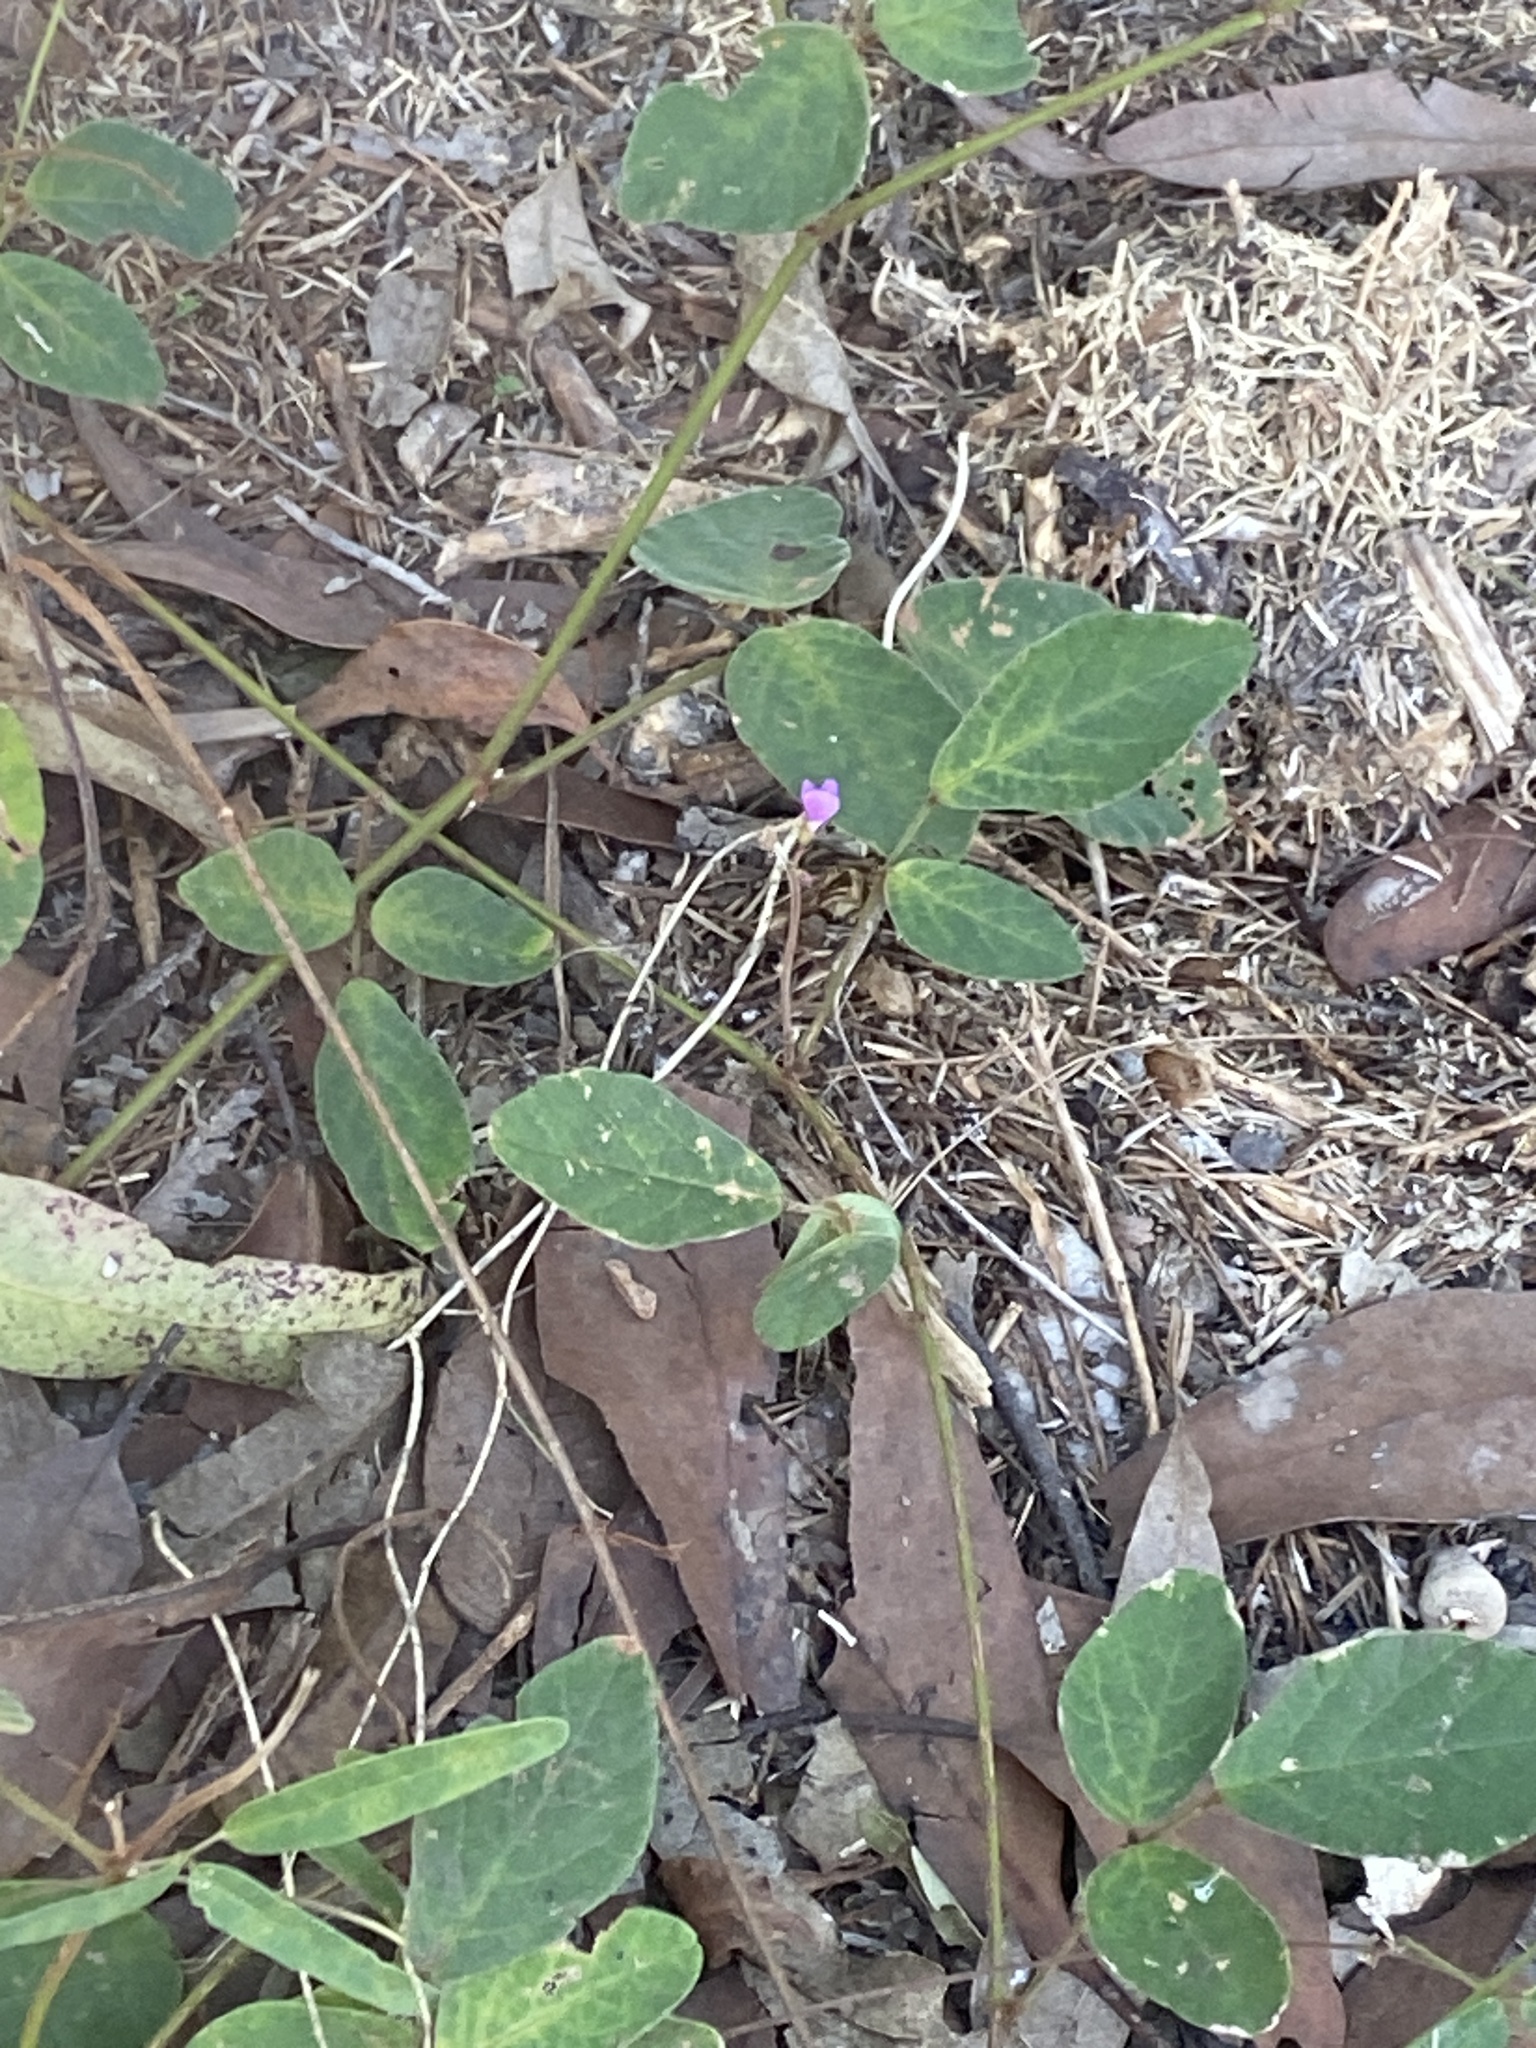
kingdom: Plantae
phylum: Tracheophyta
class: Magnoliopsida
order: Fabales
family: Fabaceae
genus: Maekawaea
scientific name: Maekawaea rhytidophylla
